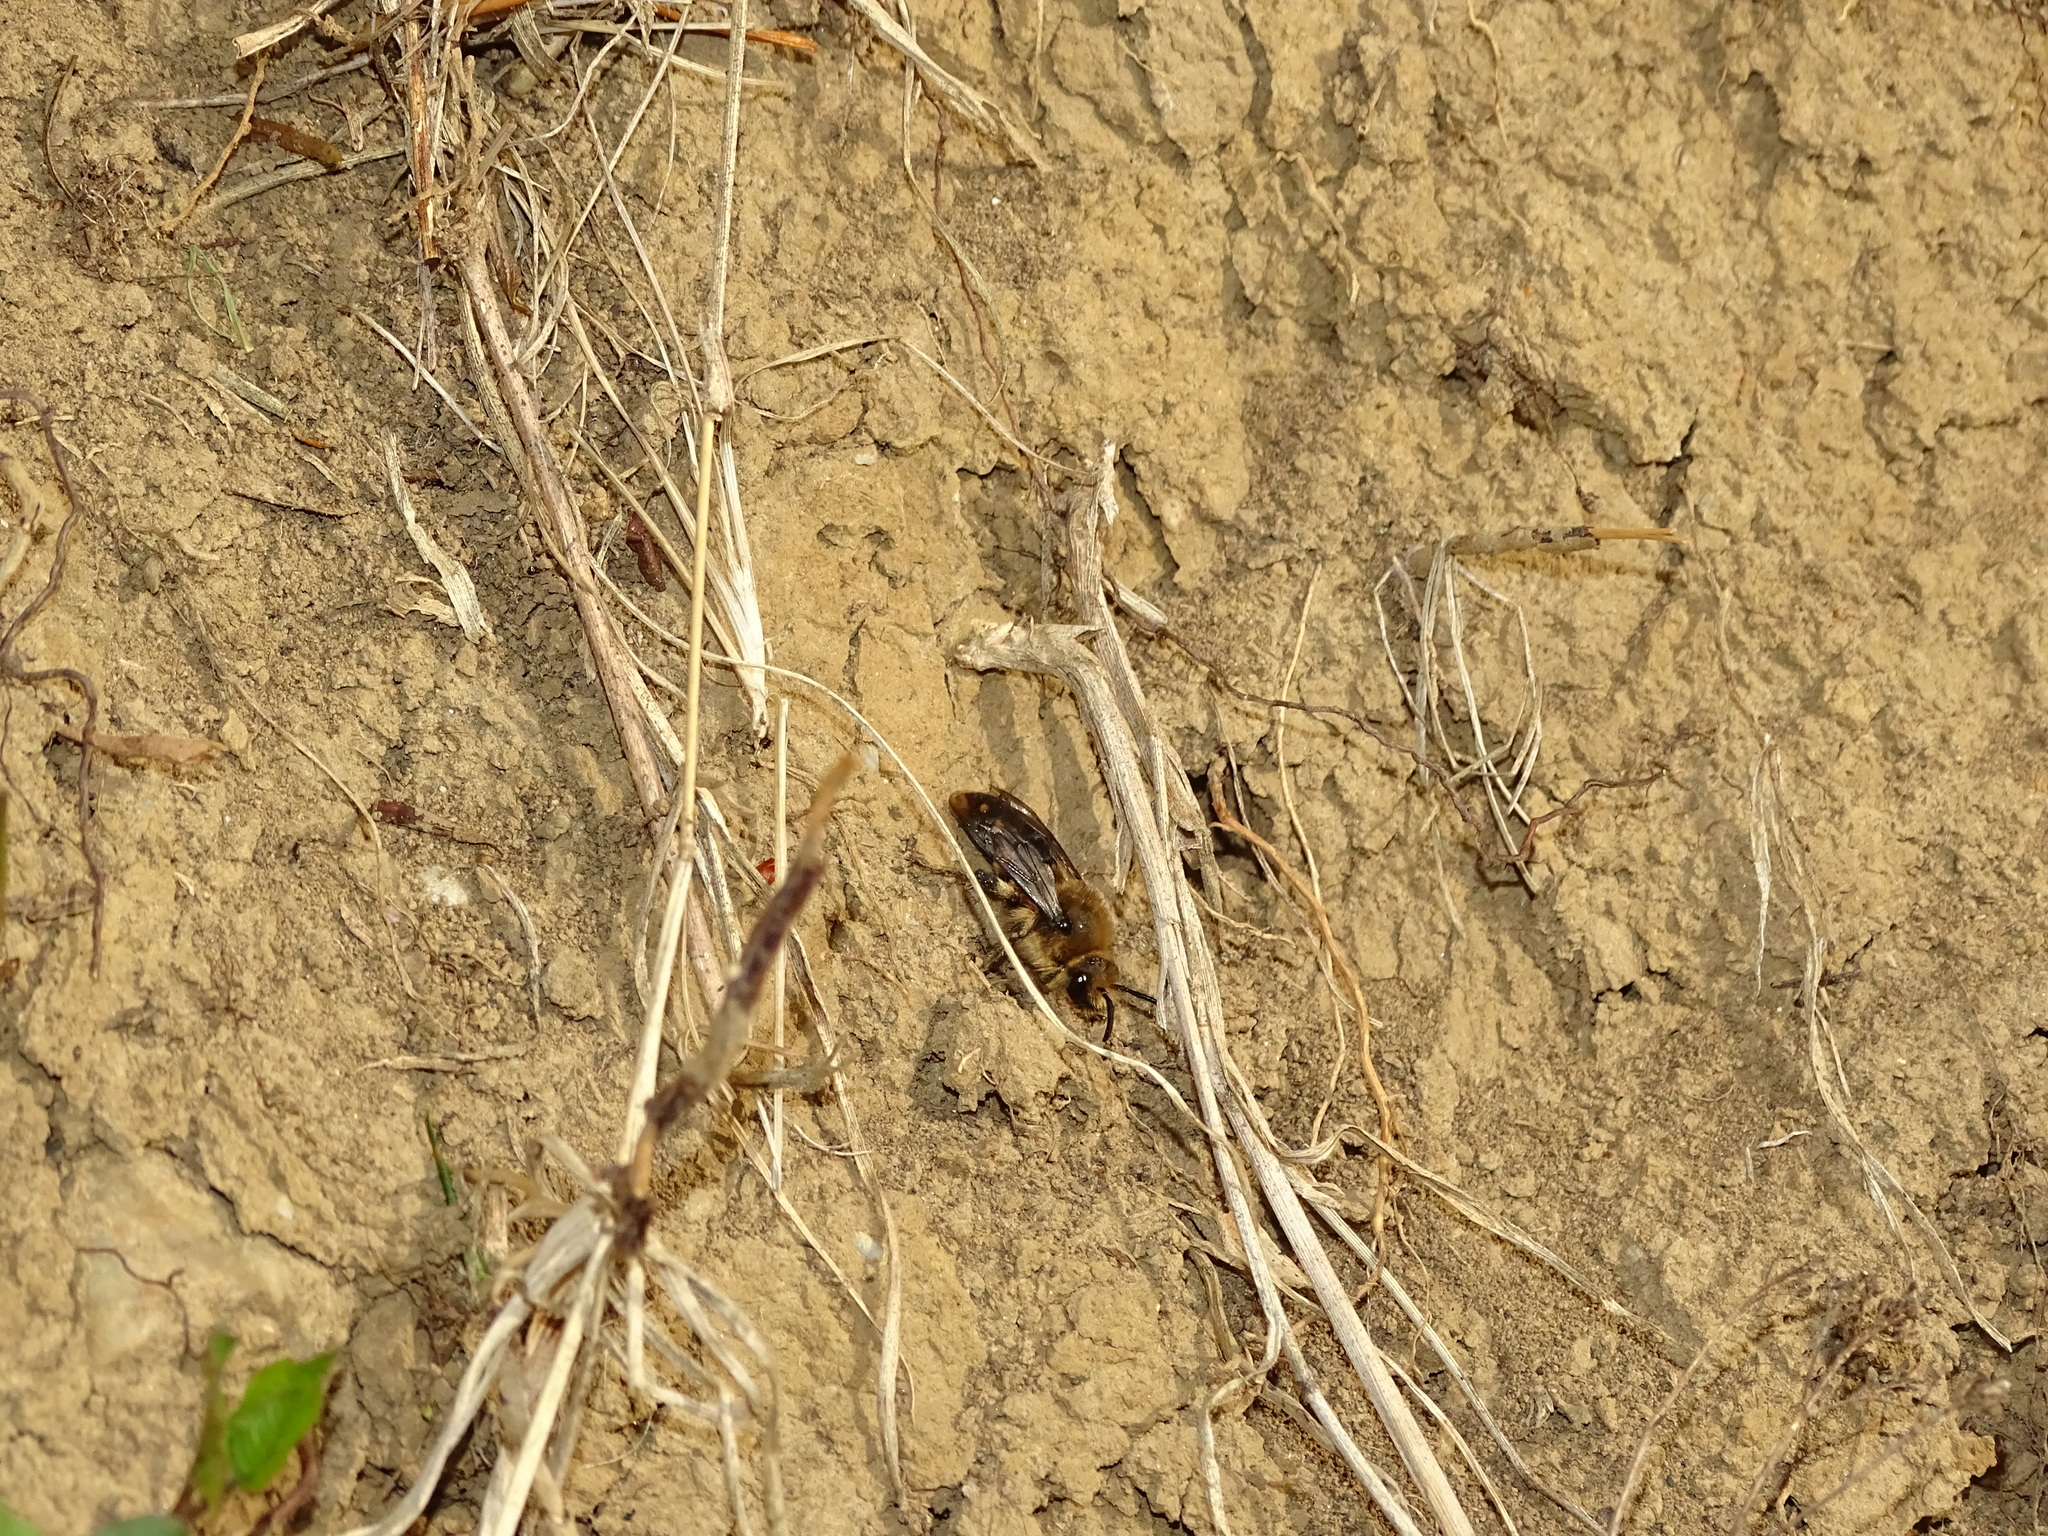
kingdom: Animalia
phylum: Arthropoda
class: Insecta
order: Hymenoptera
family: Apidae
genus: Melecta
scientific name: Melecta albifrons
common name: Common mourning bee
